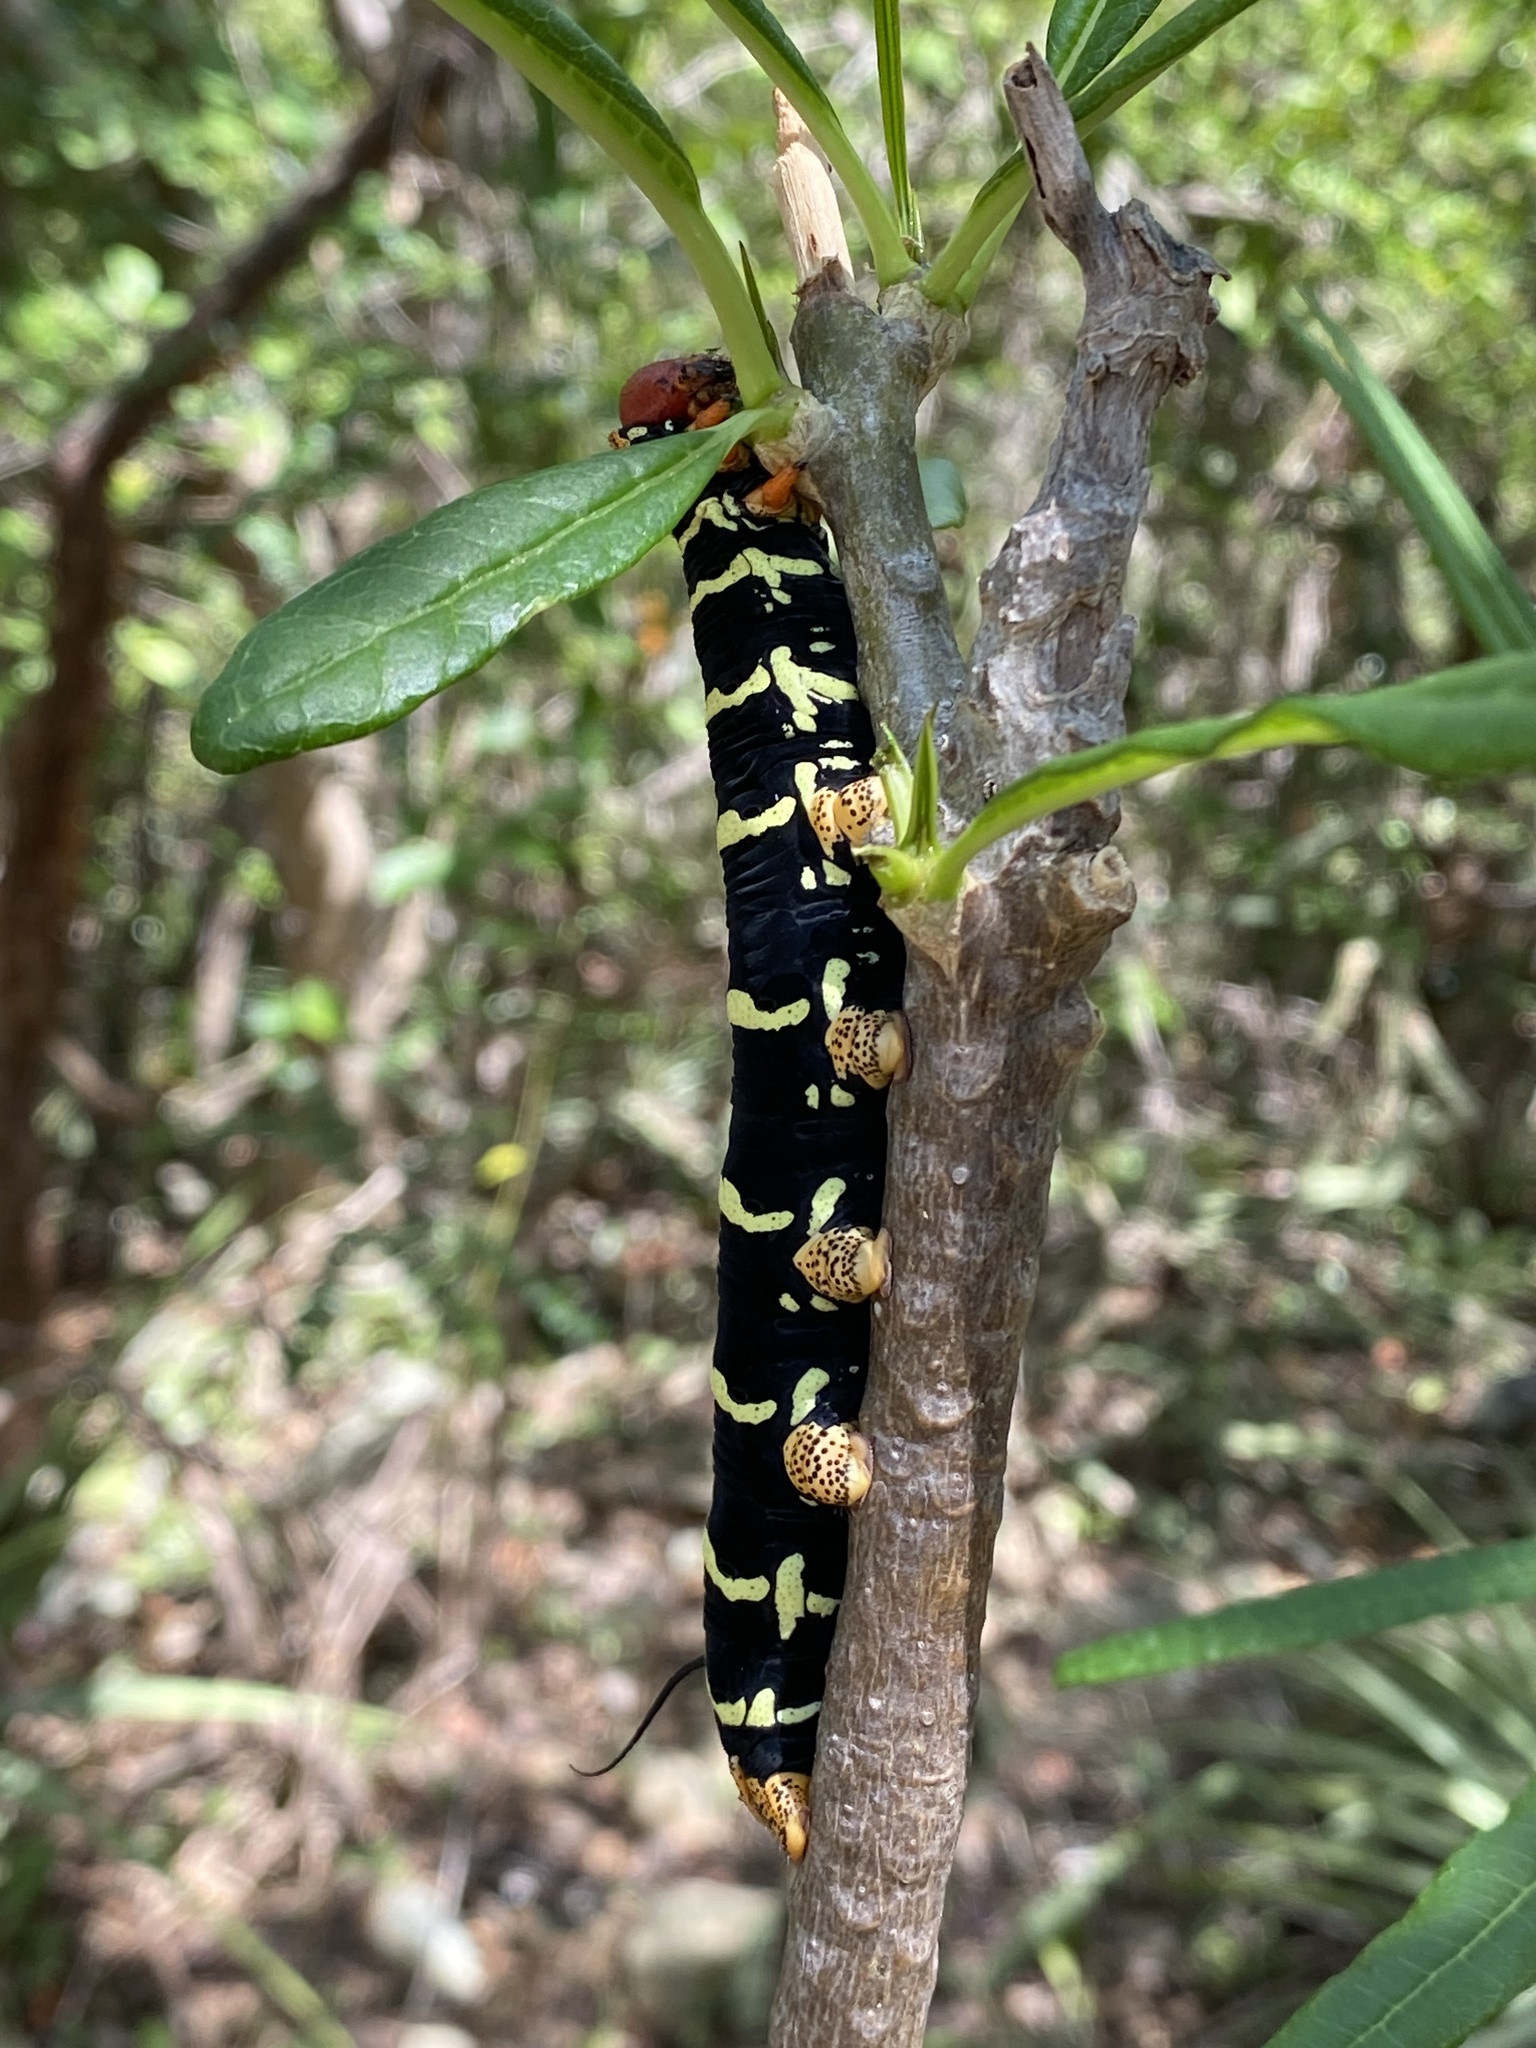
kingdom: Animalia
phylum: Arthropoda
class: Insecta
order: Lepidoptera
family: Sphingidae
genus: Pseudosphinx
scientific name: Pseudosphinx tetrio
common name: Tetrio sphinx
